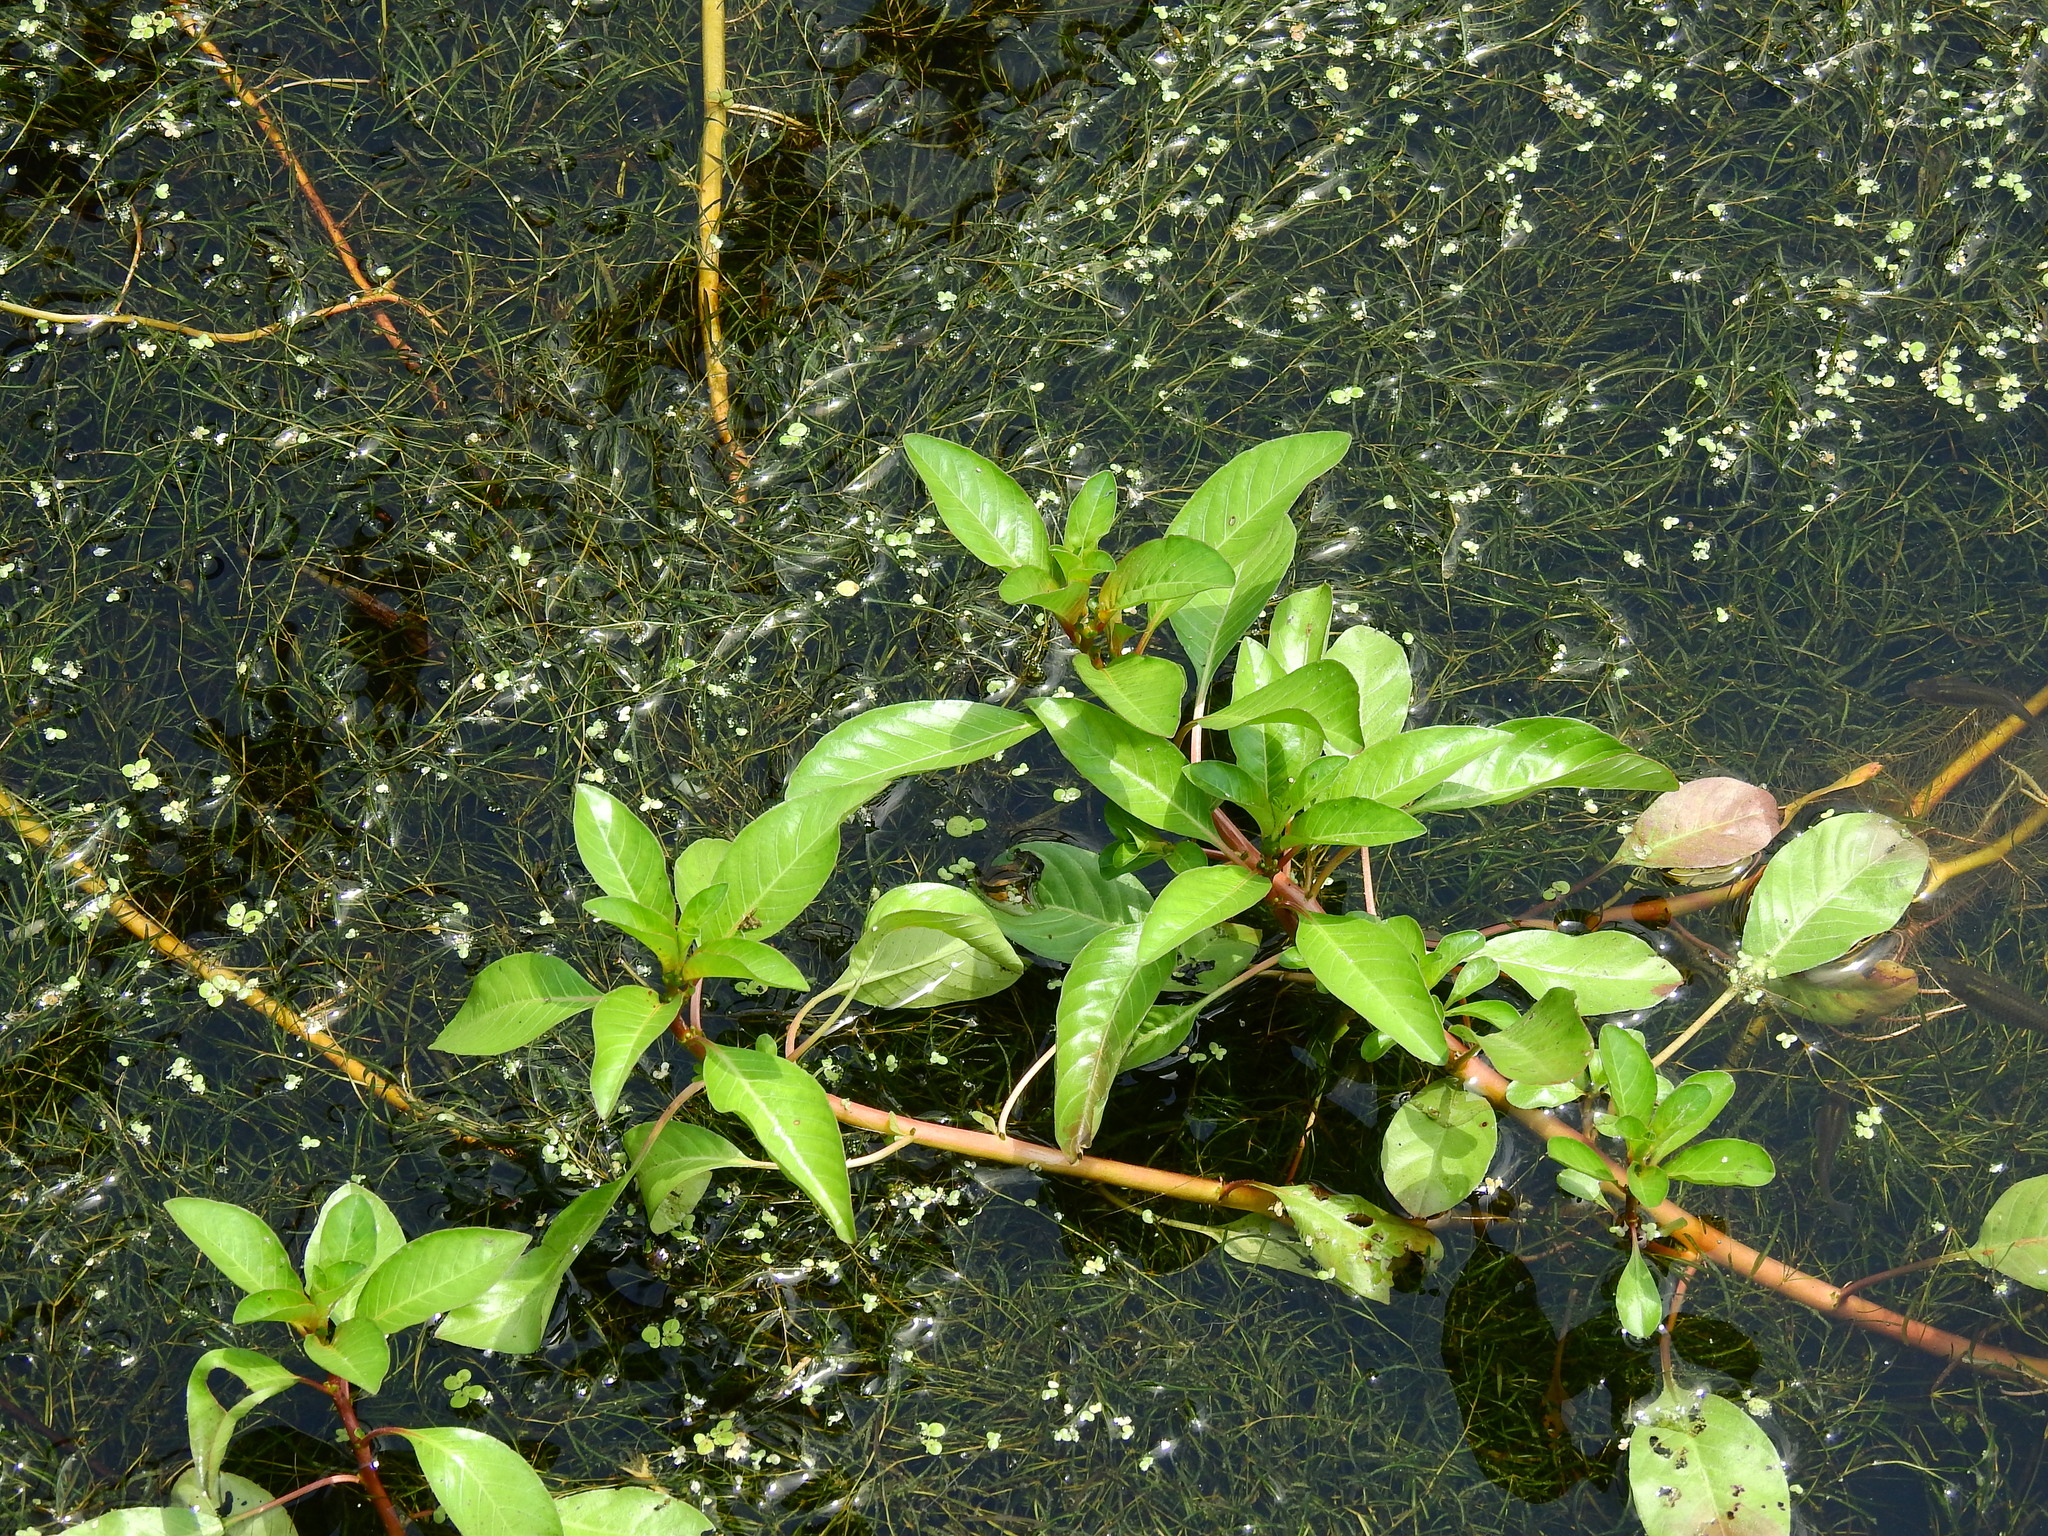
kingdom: Plantae
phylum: Tracheophyta
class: Magnoliopsida
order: Myrtales
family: Onagraceae
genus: Ludwigia
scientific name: Ludwigia peploides
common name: Floating primrose-willow
